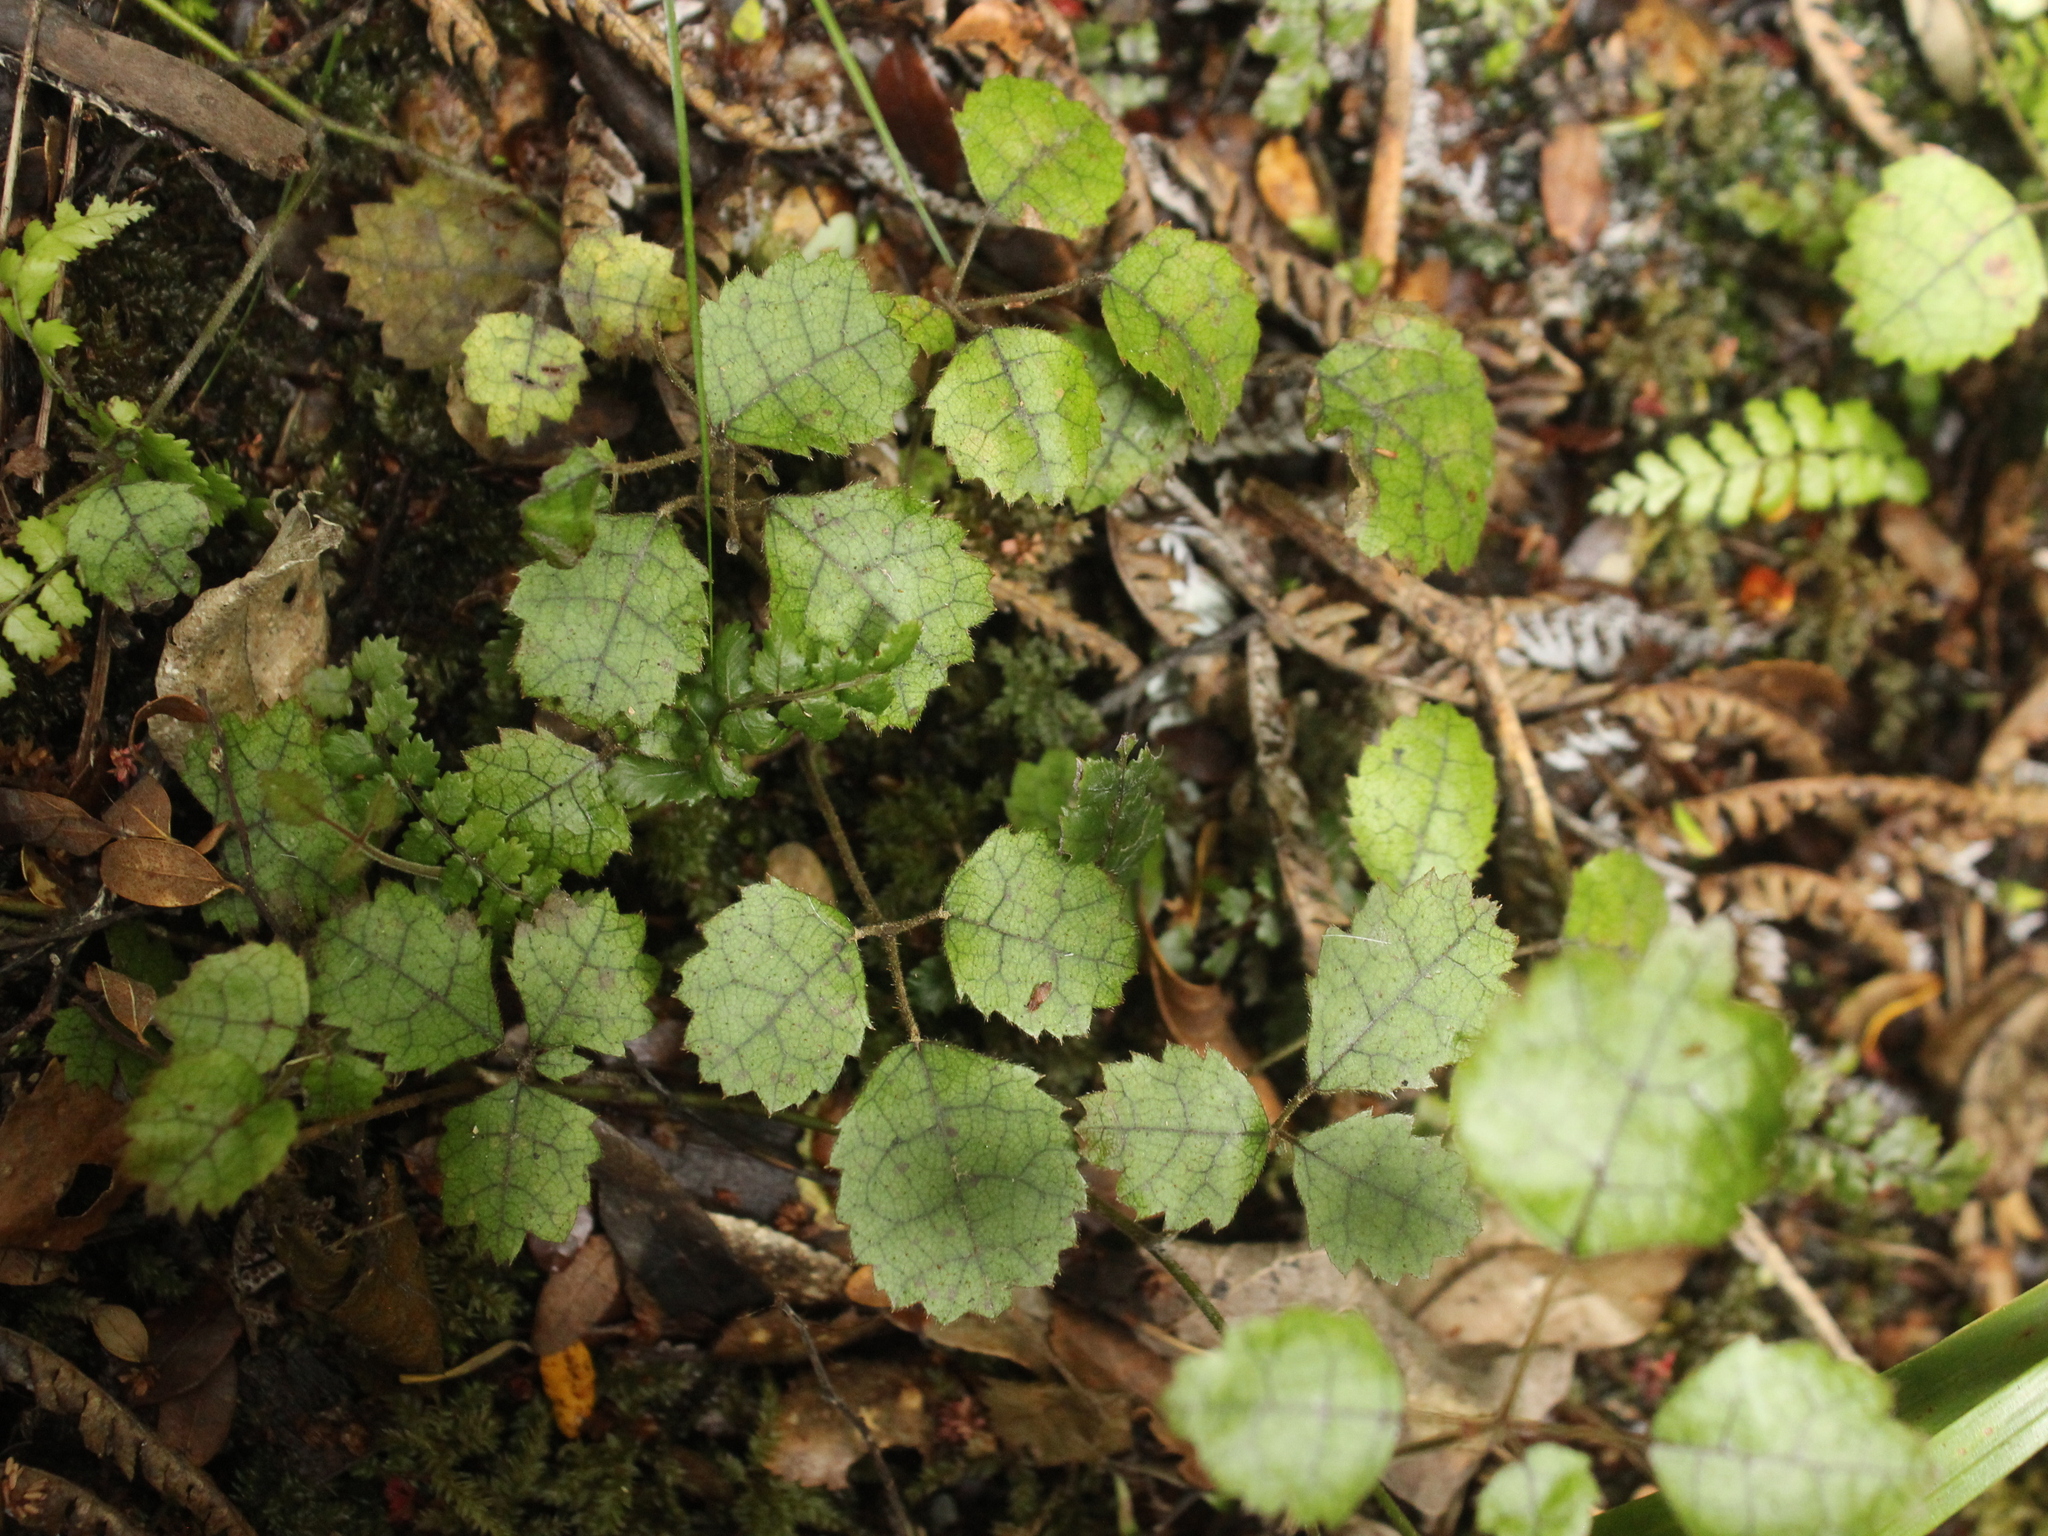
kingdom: Plantae
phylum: Tracheophyta
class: Magnoliopsida
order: Rosales
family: Rosaceae
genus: Rubus
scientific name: Rubus australis
